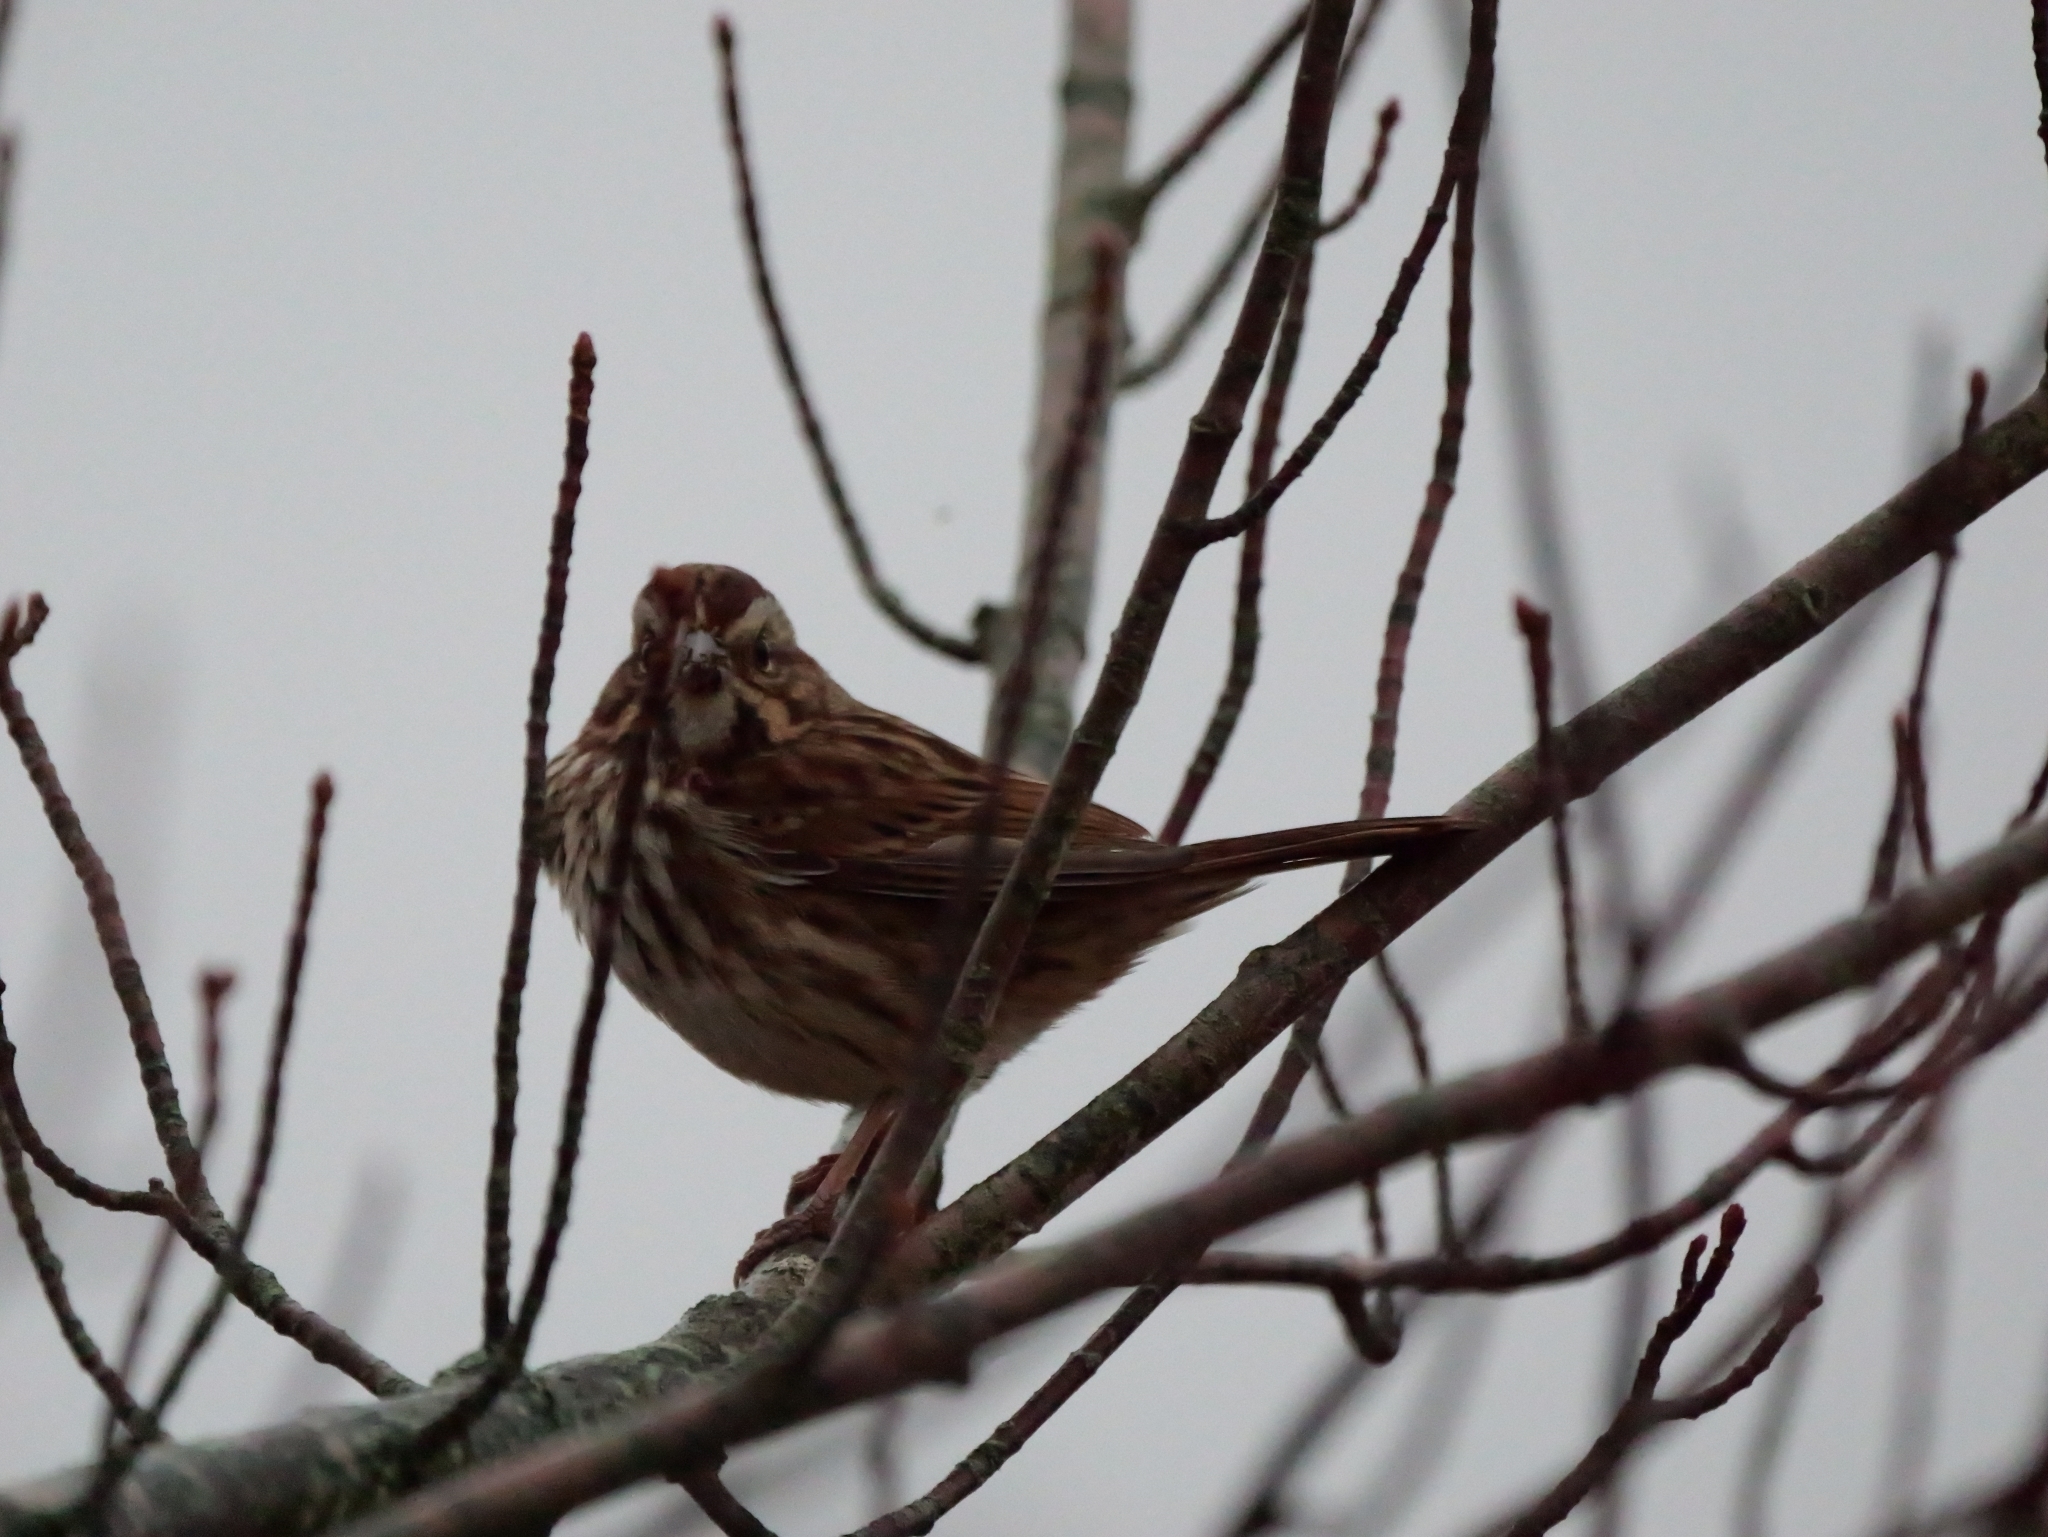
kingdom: Animalia
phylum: Chordata
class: Aves
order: Passeriformes
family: Passerellidae
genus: Melospiza
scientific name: Melospiza melodia
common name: Song sparrow
